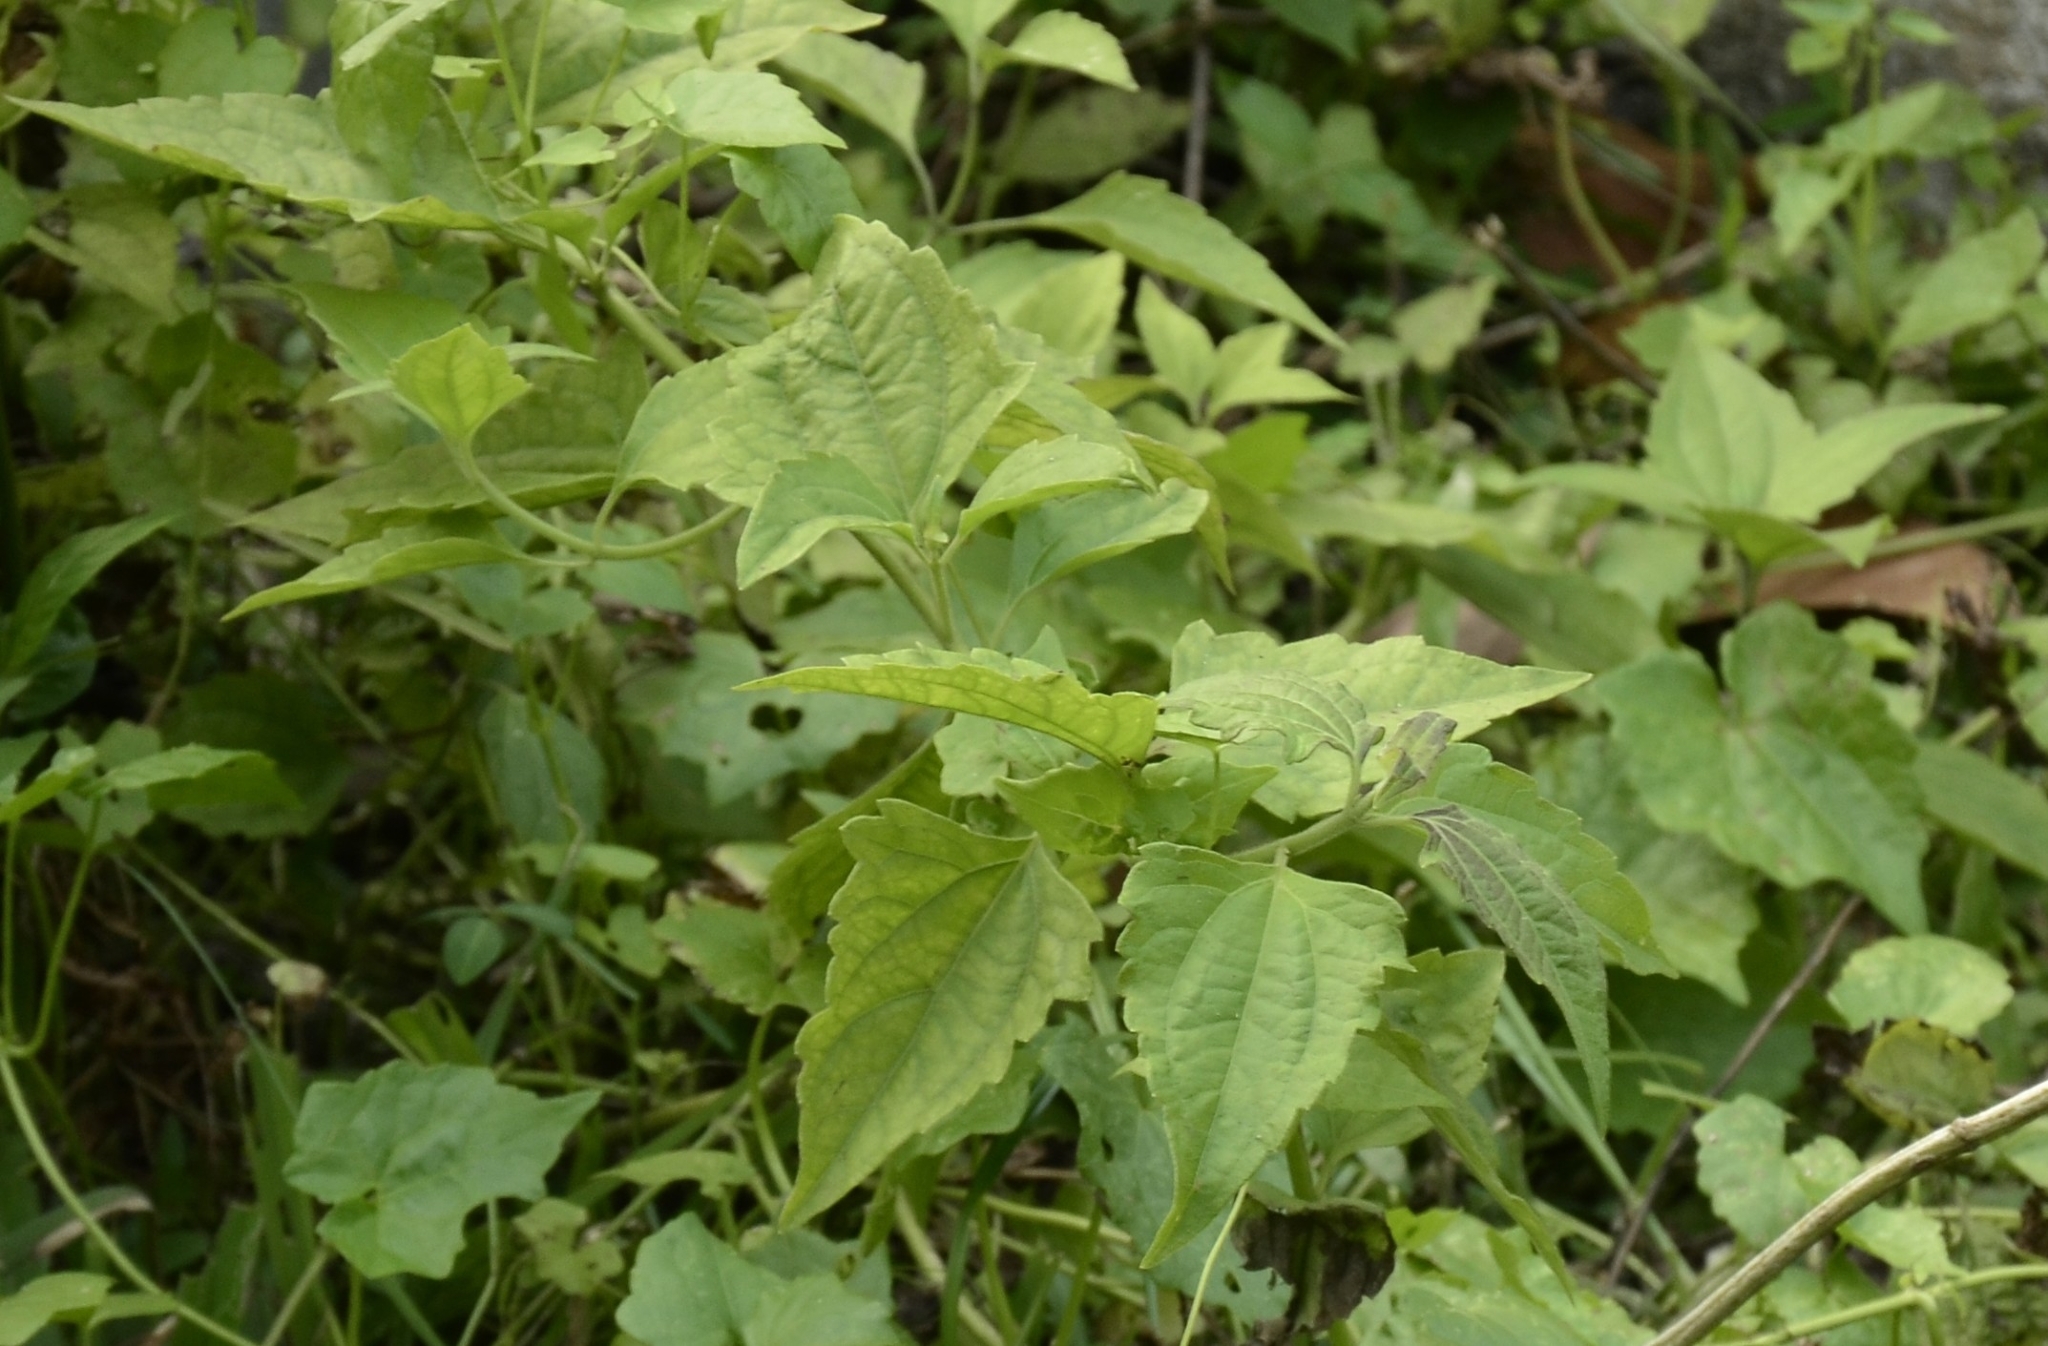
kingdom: Plantae
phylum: Tracheophyta
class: Magnoliopsida
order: Asterales
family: Asteraceae
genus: Chromolaena
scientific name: Chromolaena odorata
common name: Siamweed
